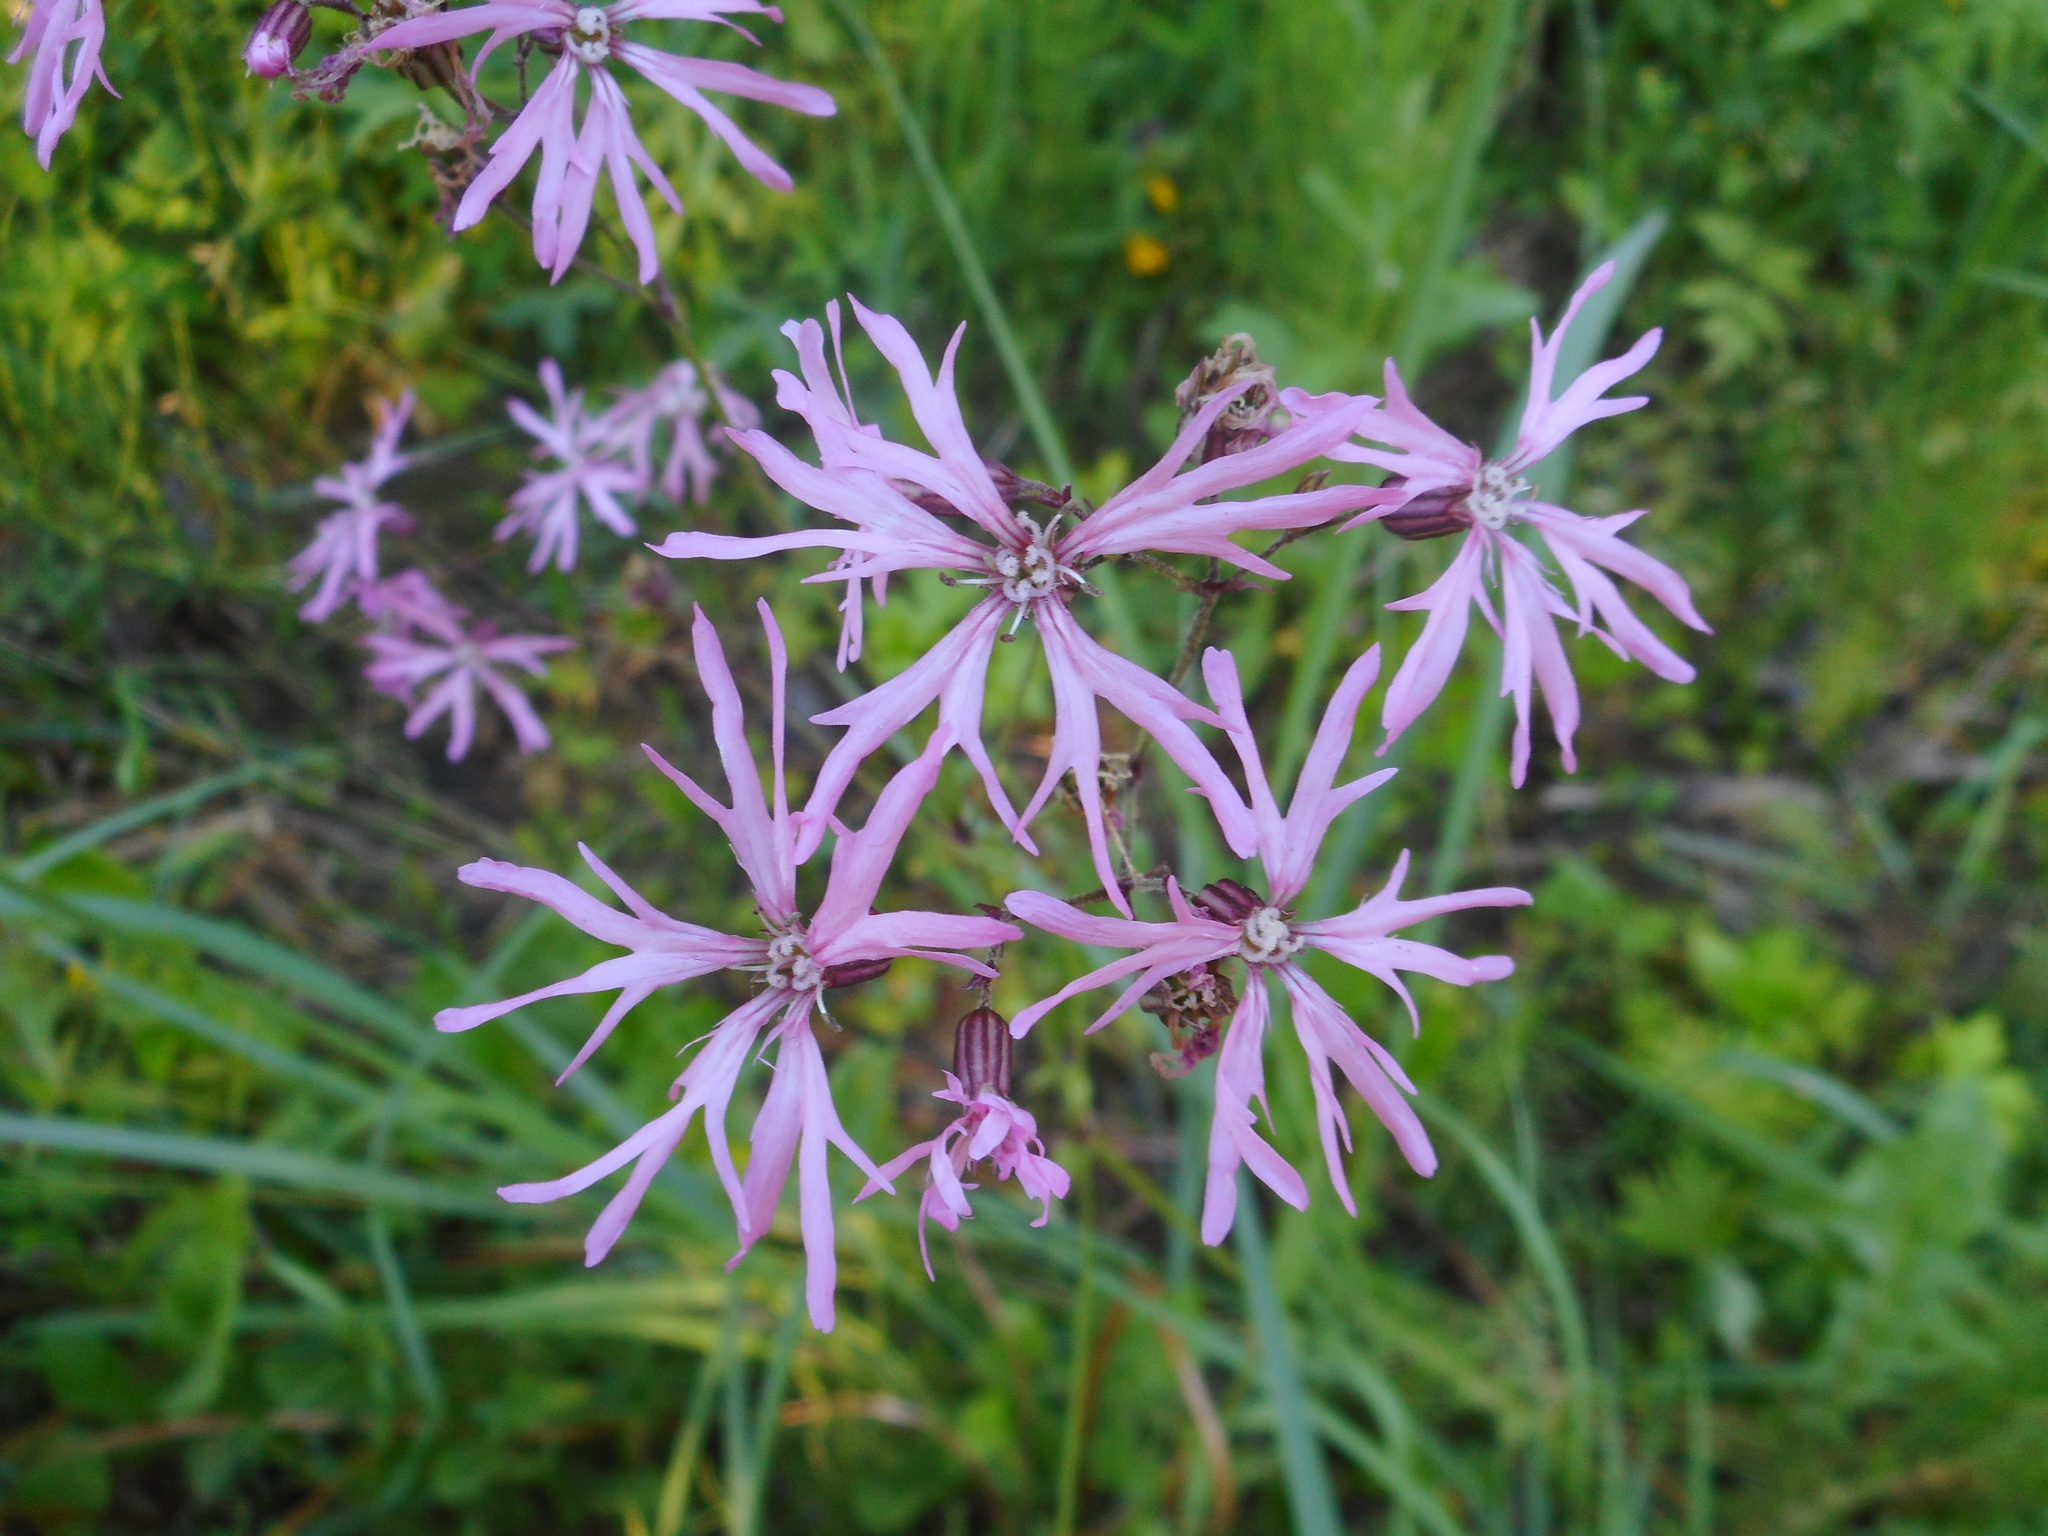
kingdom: Plantae
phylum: Tracheophyta
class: Magnoliopsida
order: Caryophyllales
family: Caryophyllaceae
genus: Silene
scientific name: Silene flos-cuculi
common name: Ragged-robin
